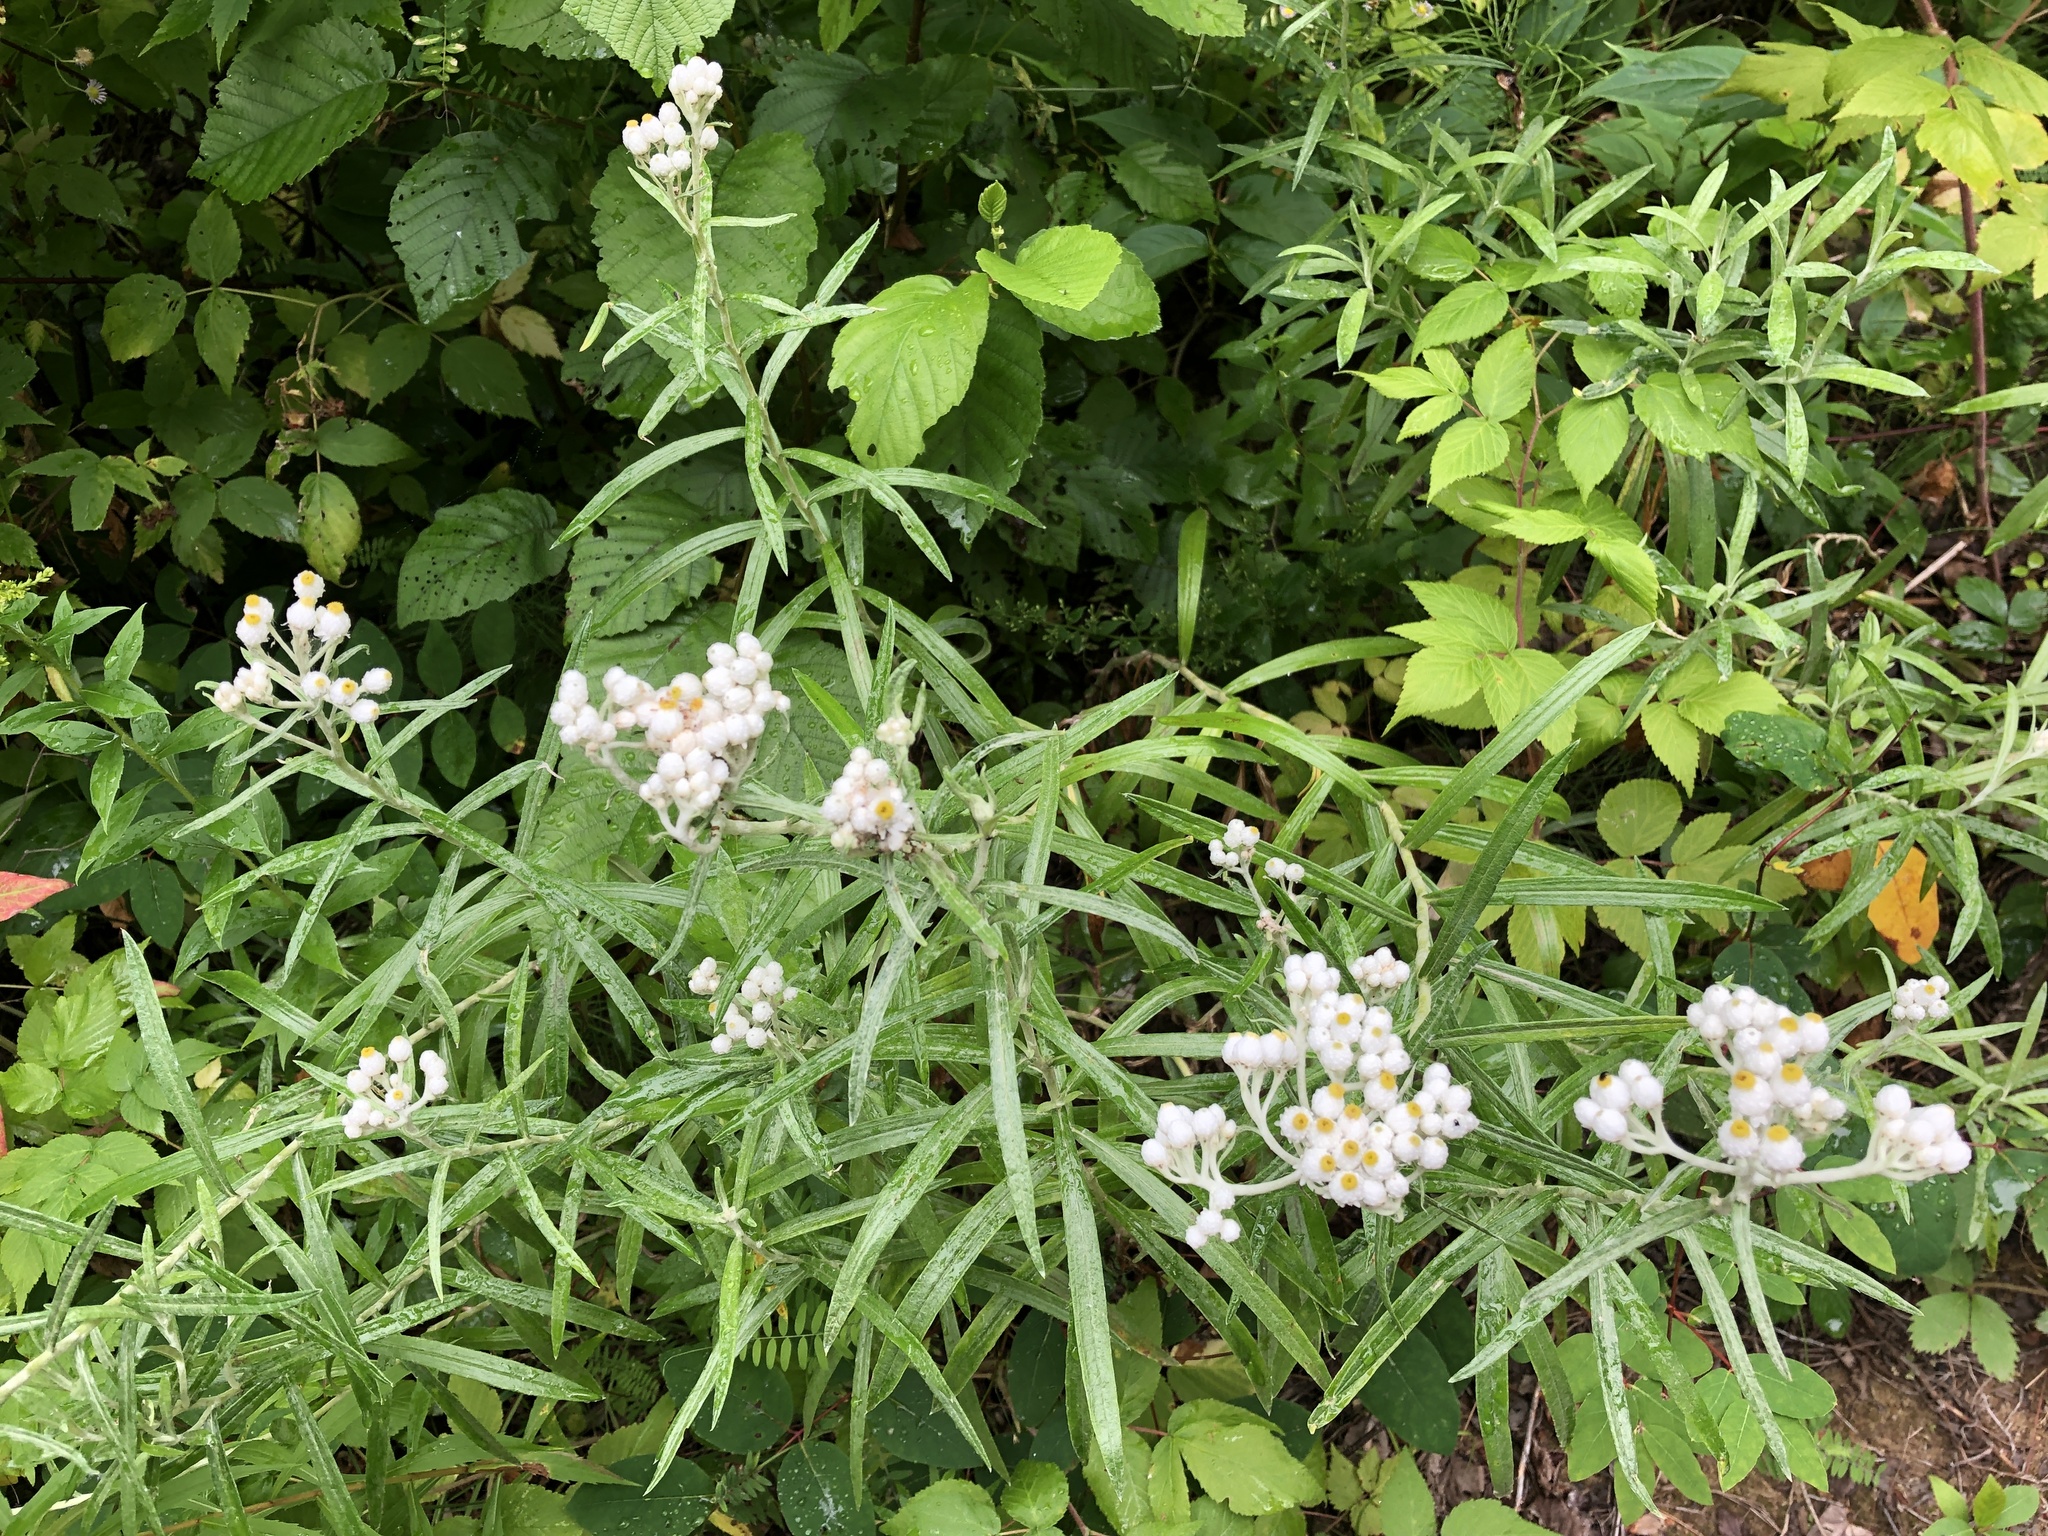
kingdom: Plantae
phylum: Tracheophyta
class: Magnoliopsida
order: Asterales
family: Asteraceae
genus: Anaphalis
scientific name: Anaphalis margaritacea
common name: Pearly everlasting
